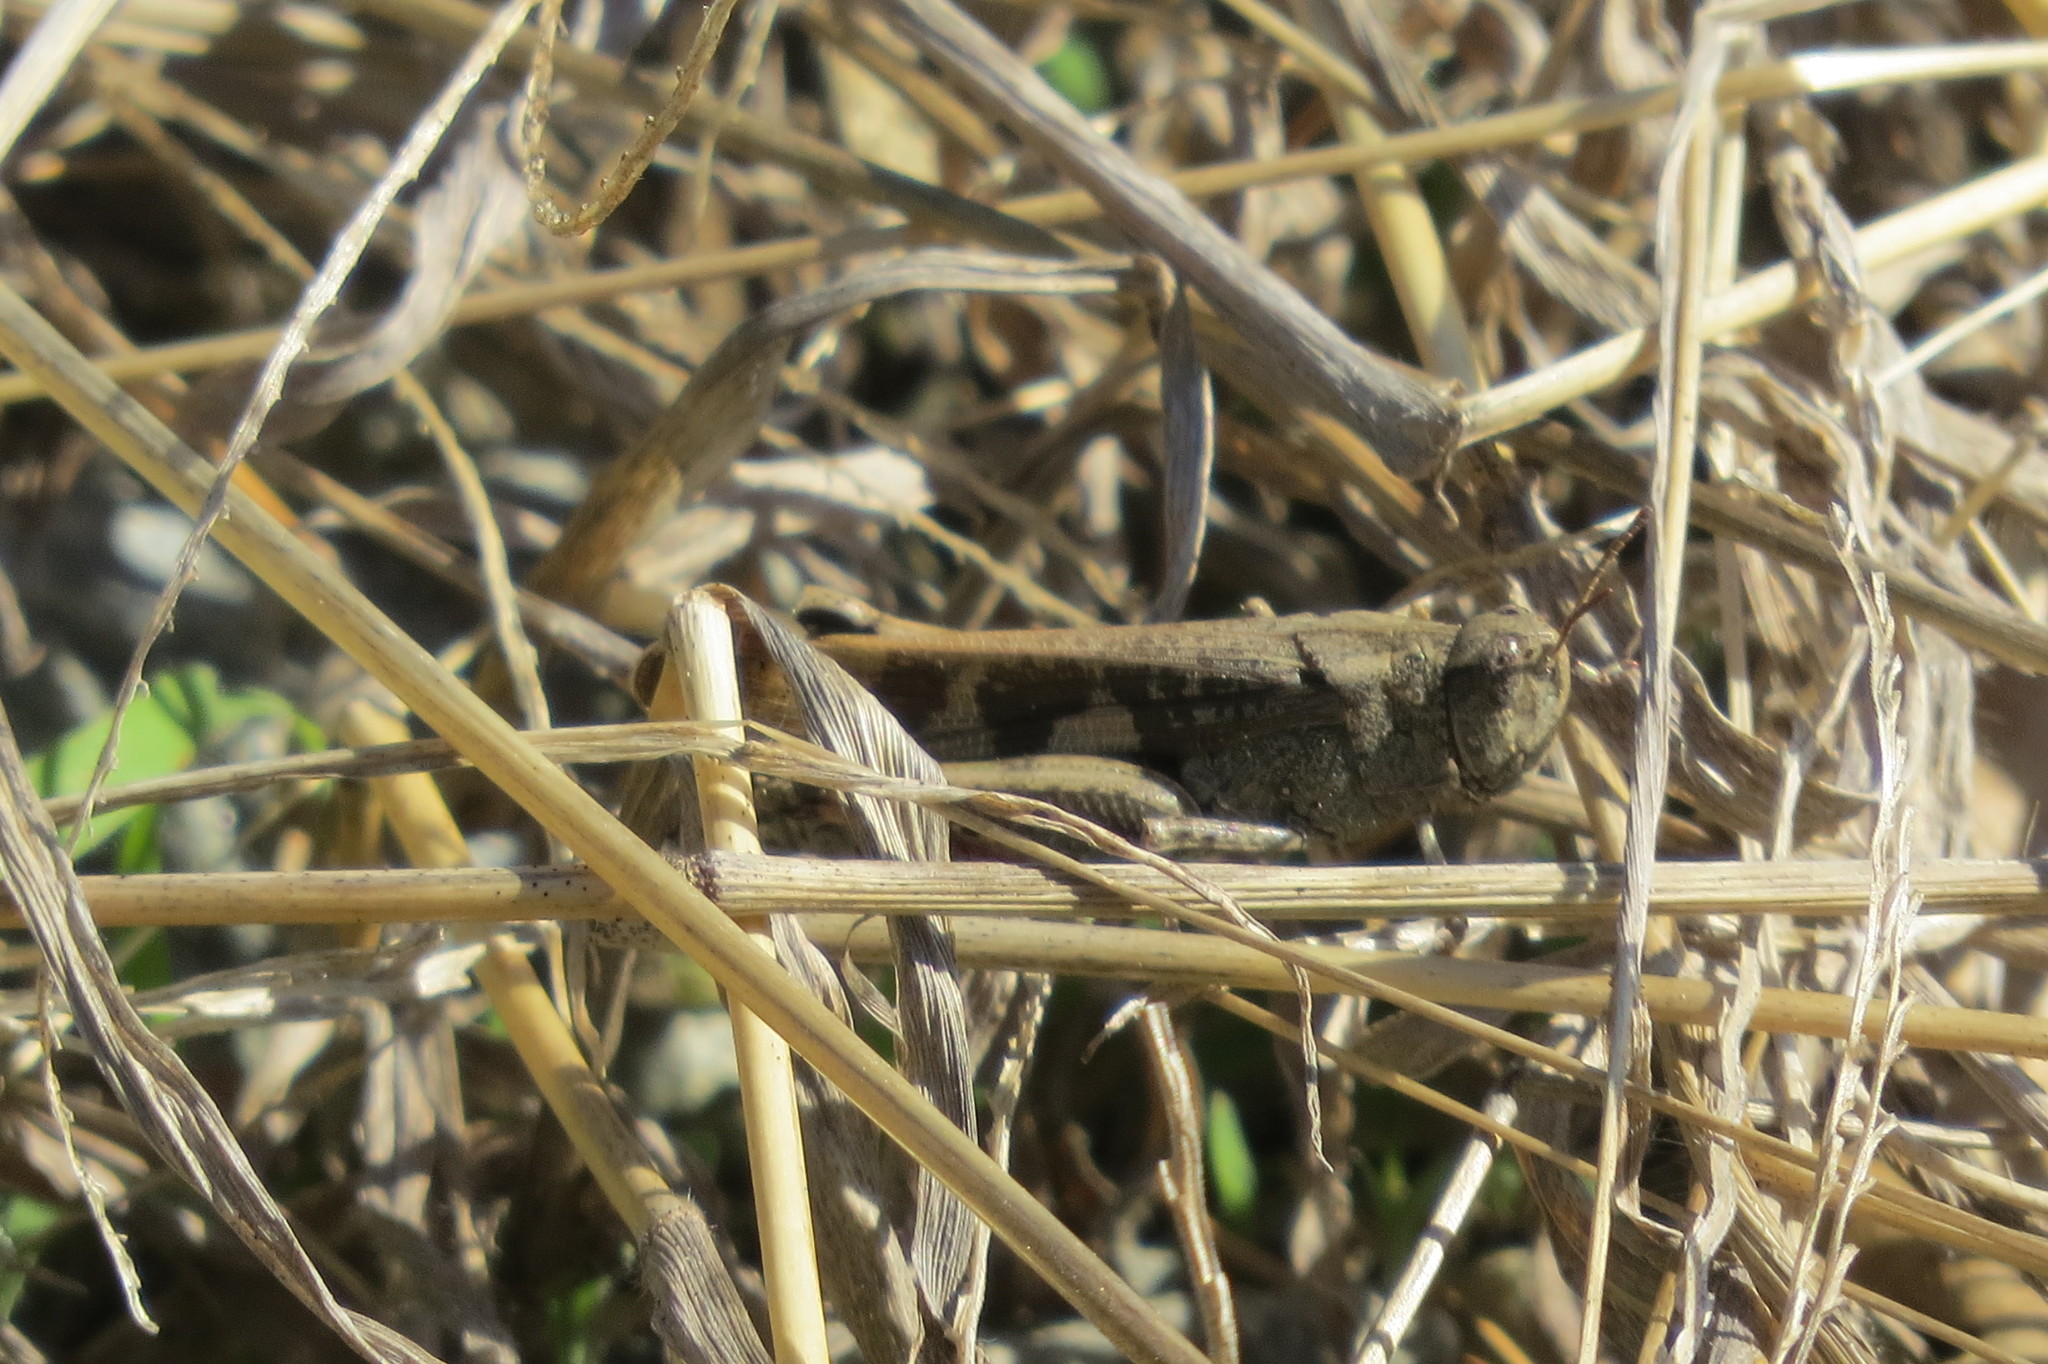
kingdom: Animalia
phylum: Arthropoda
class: Insecta
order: Orthoptera
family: Acrididae
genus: Aiolopus
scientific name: Aiolopus strepens
